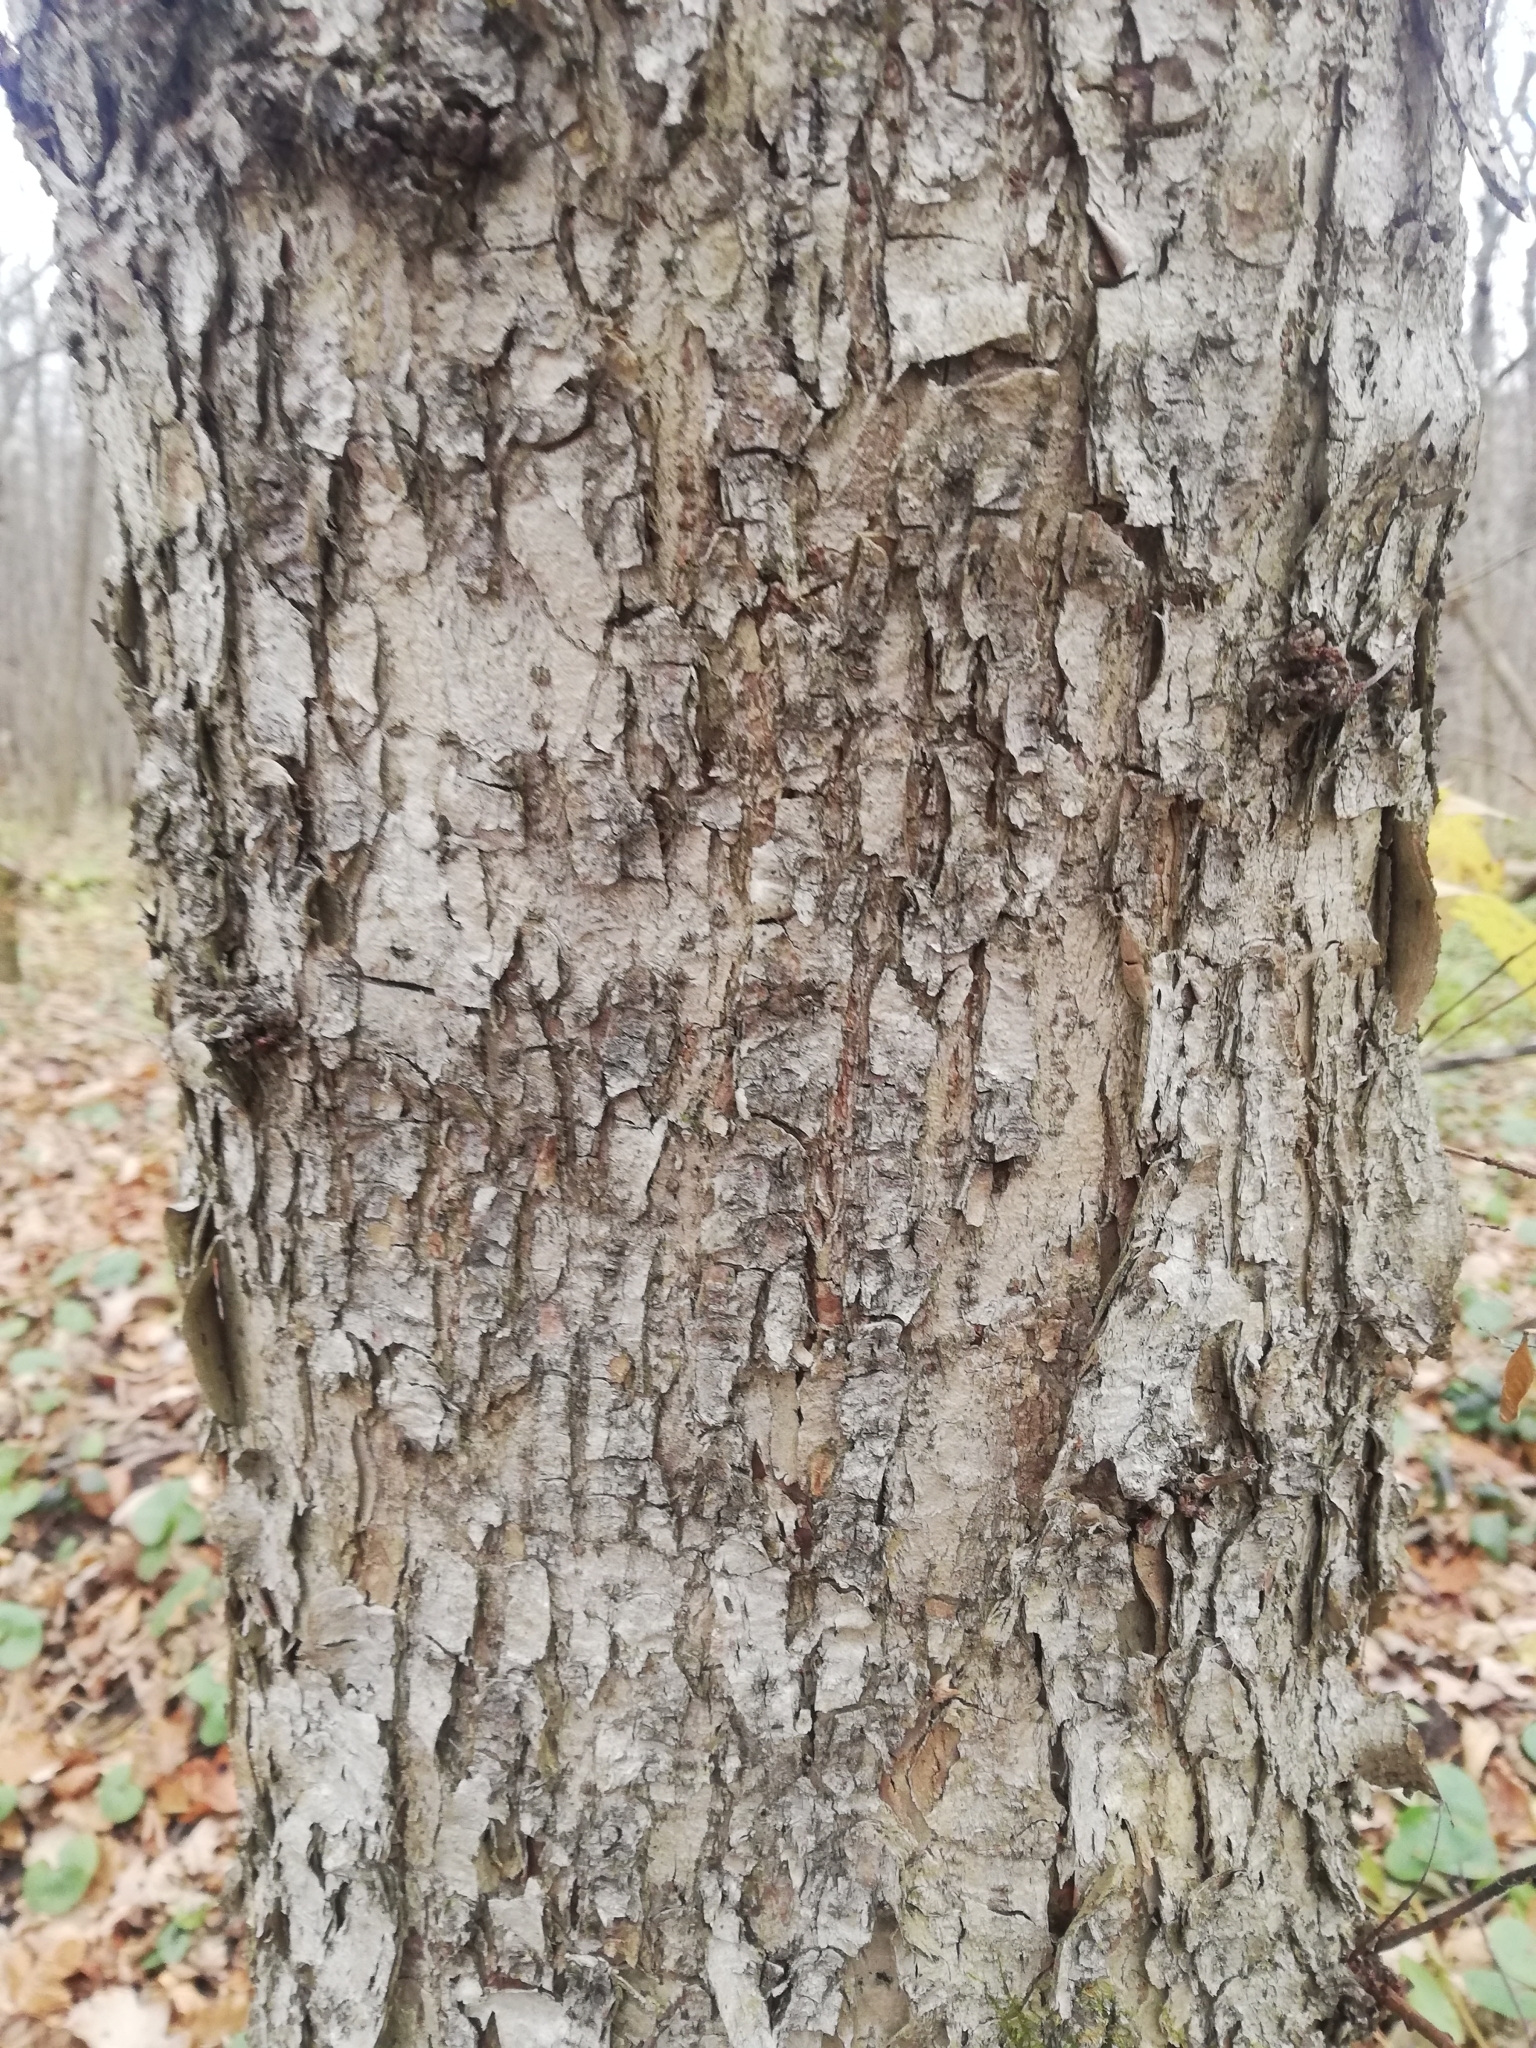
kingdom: Plantae
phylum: Tracheophyta
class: Magnoliopsida
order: Rosales
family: Ulmaceae
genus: Ulmus
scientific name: Ulmus laevis
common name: European white-elm
